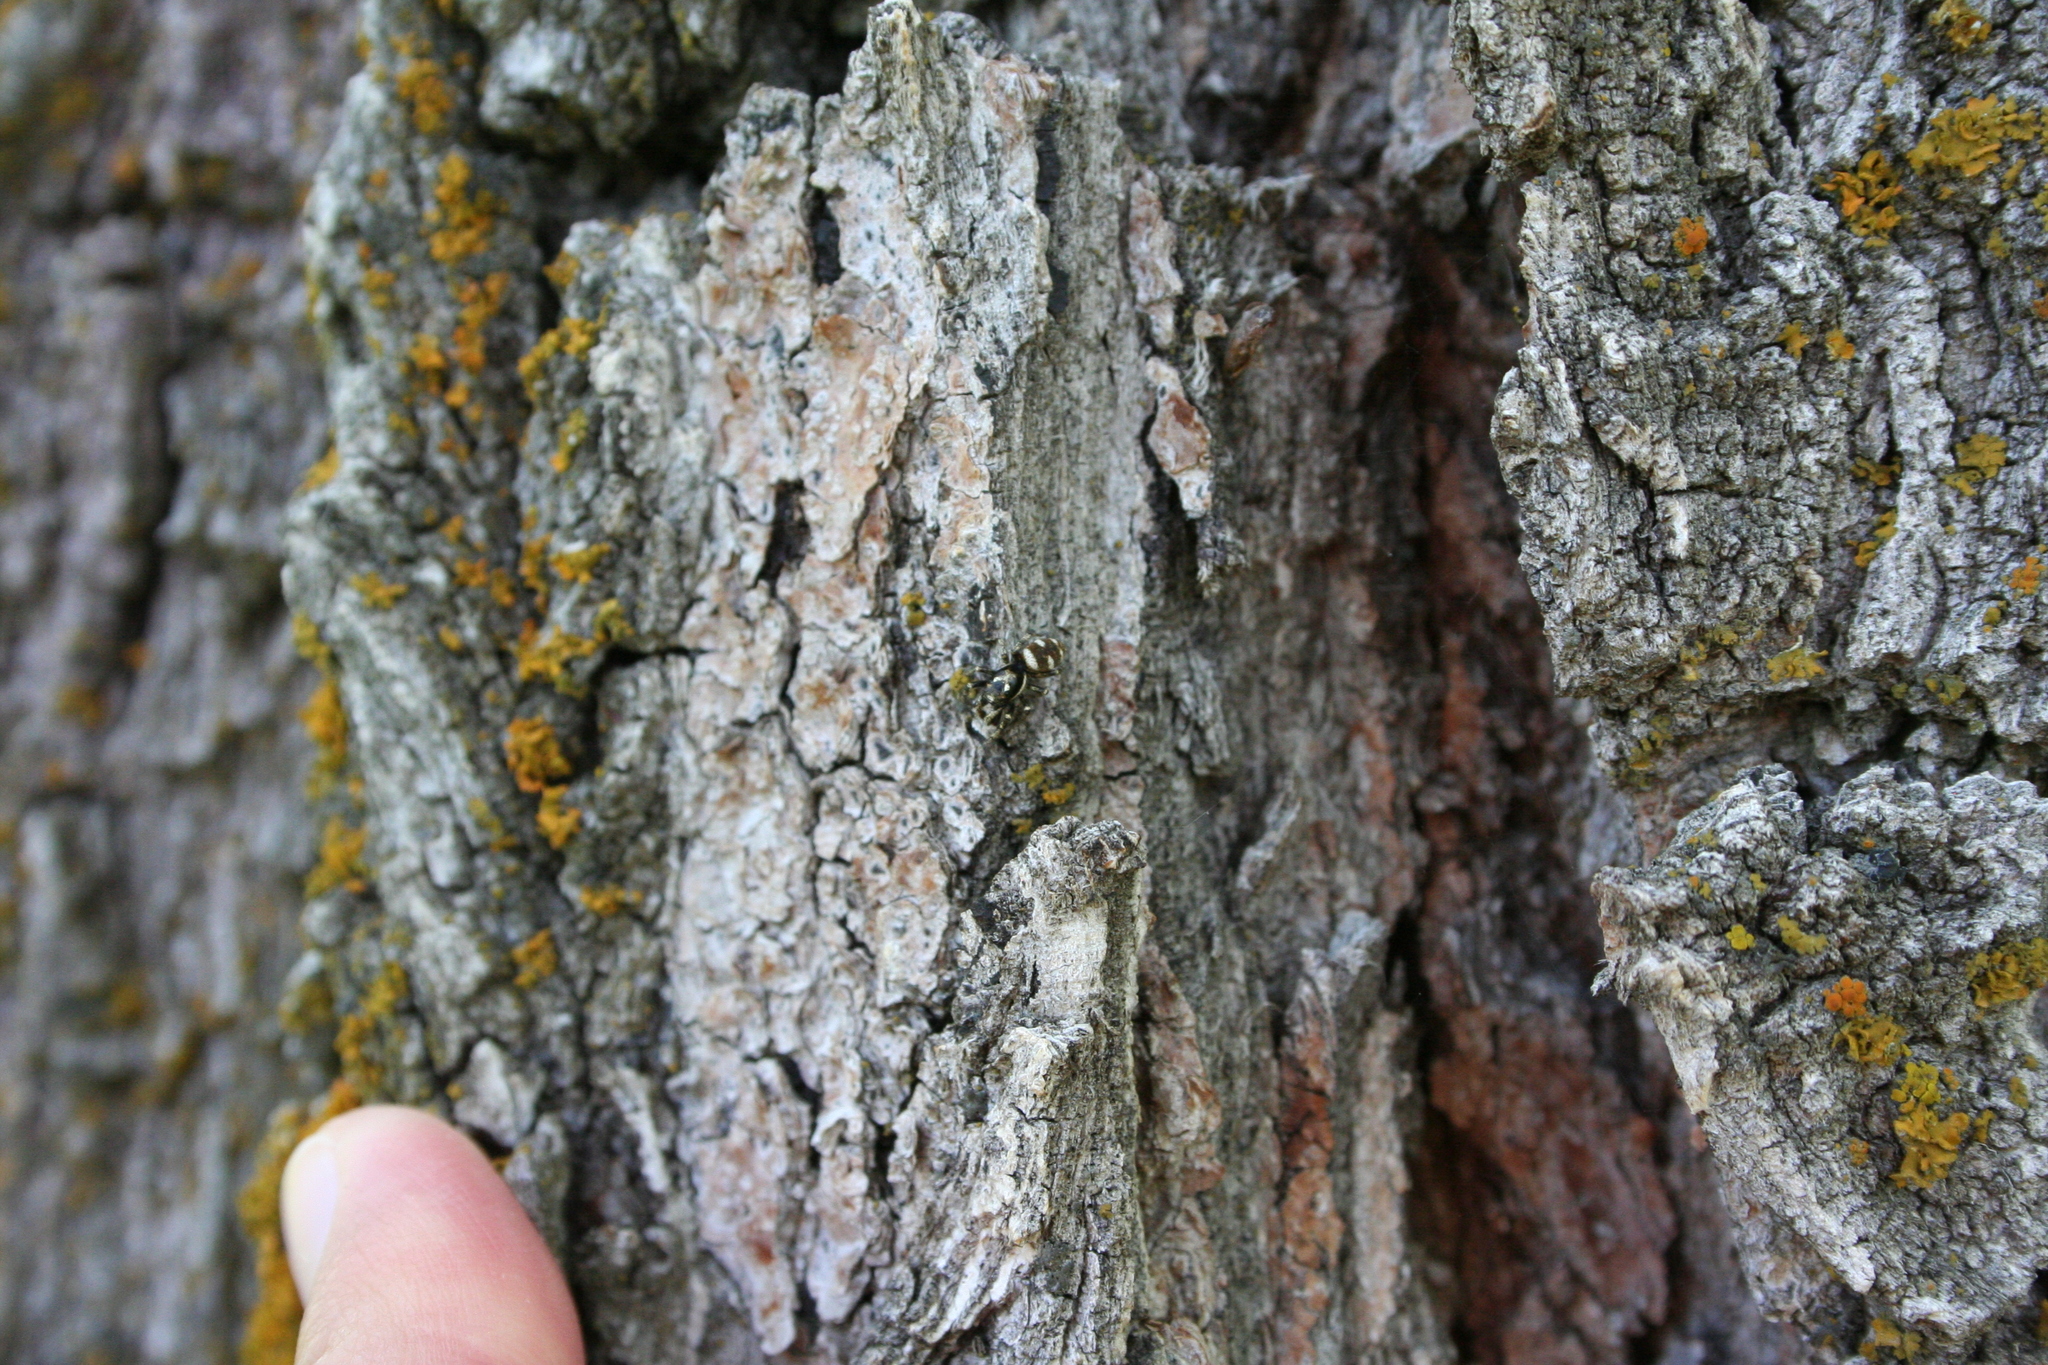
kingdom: Animalia
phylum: Arthropoda
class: Arachnida
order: Araneae
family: Salticidae
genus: Salticus
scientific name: Salticus scenicus
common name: Zebra jumper
